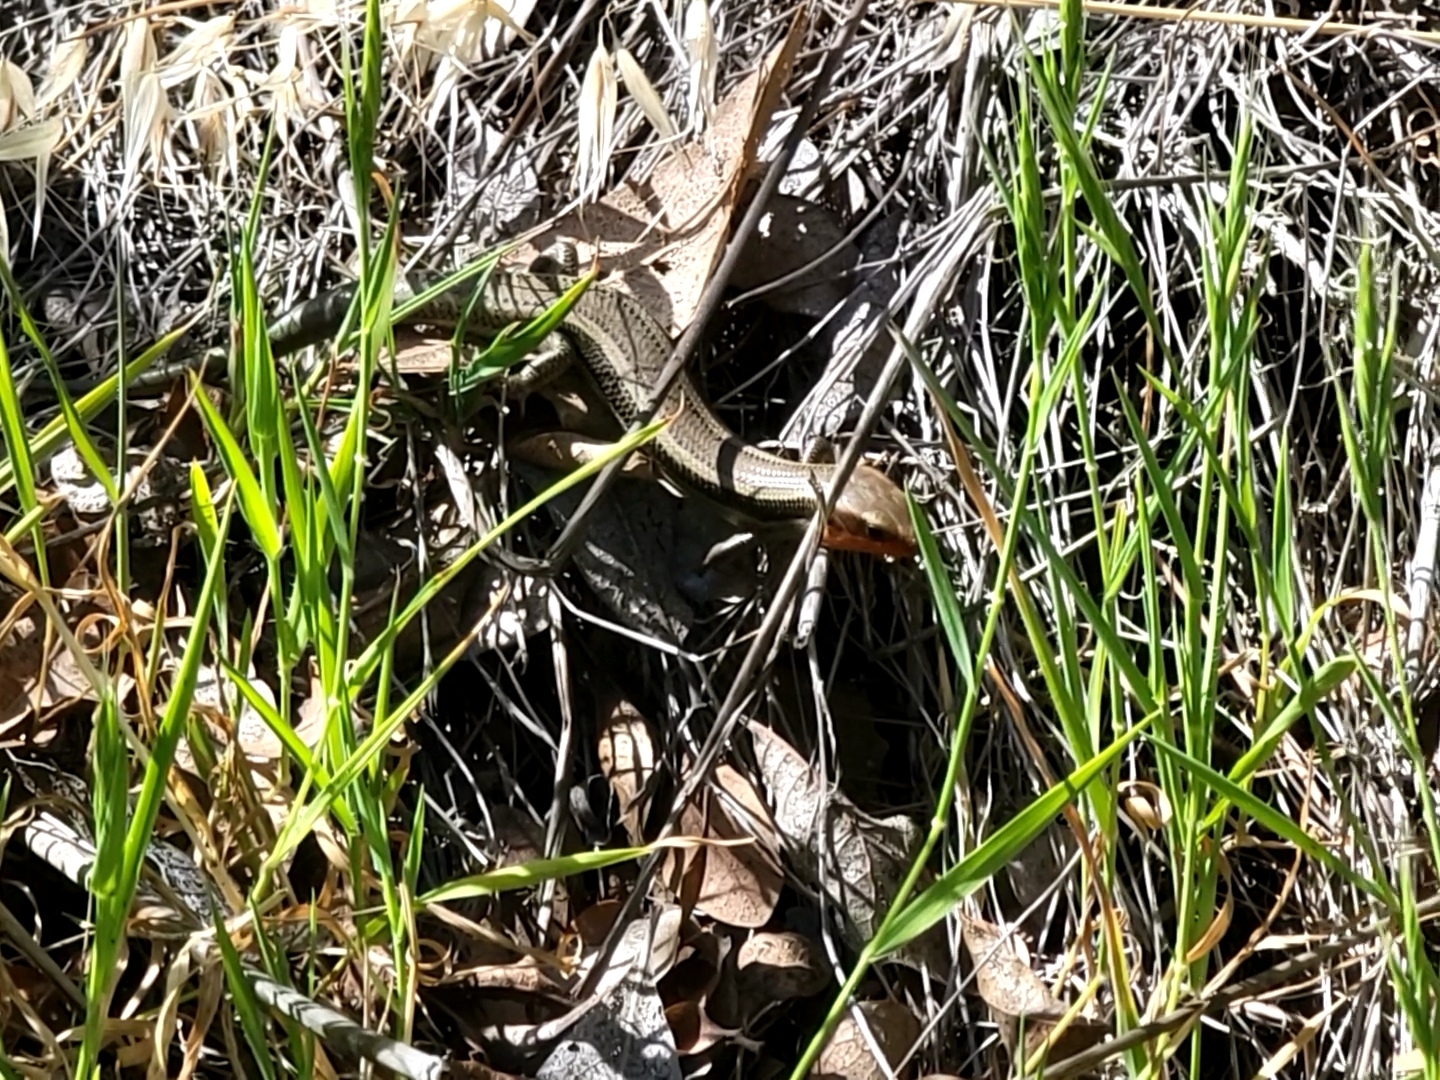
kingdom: Animalia
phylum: Chordata
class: Squamata
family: Scincidae
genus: Plestiodon
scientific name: Plestiodon skiltonianus
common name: Coronado island skink [interparietalis]
